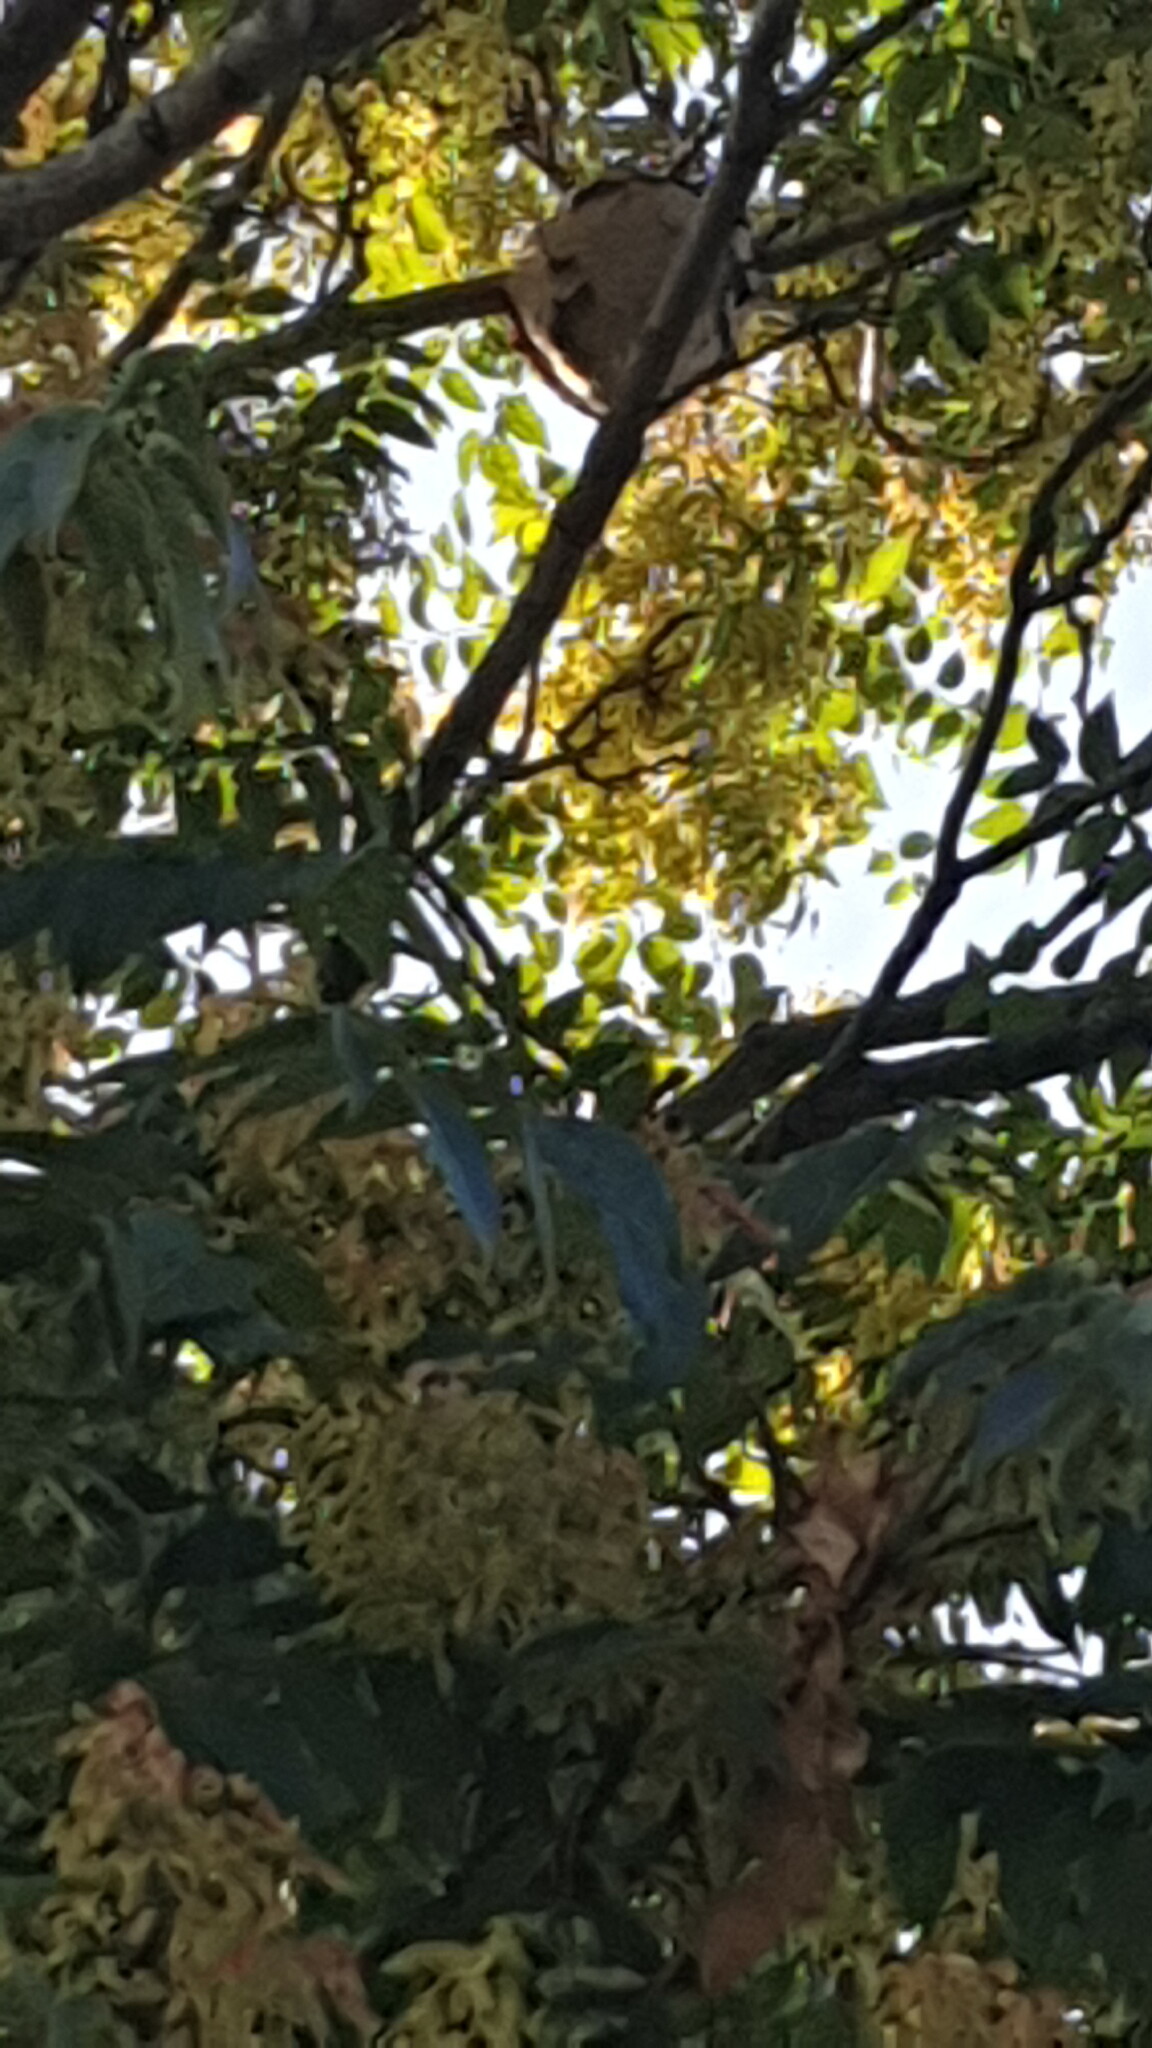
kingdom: Animalia
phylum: Arthropoda
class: Insecta
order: Hymenoptera
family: Vespidae
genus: Vespa
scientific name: Vespa velutina
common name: Asian hornet
